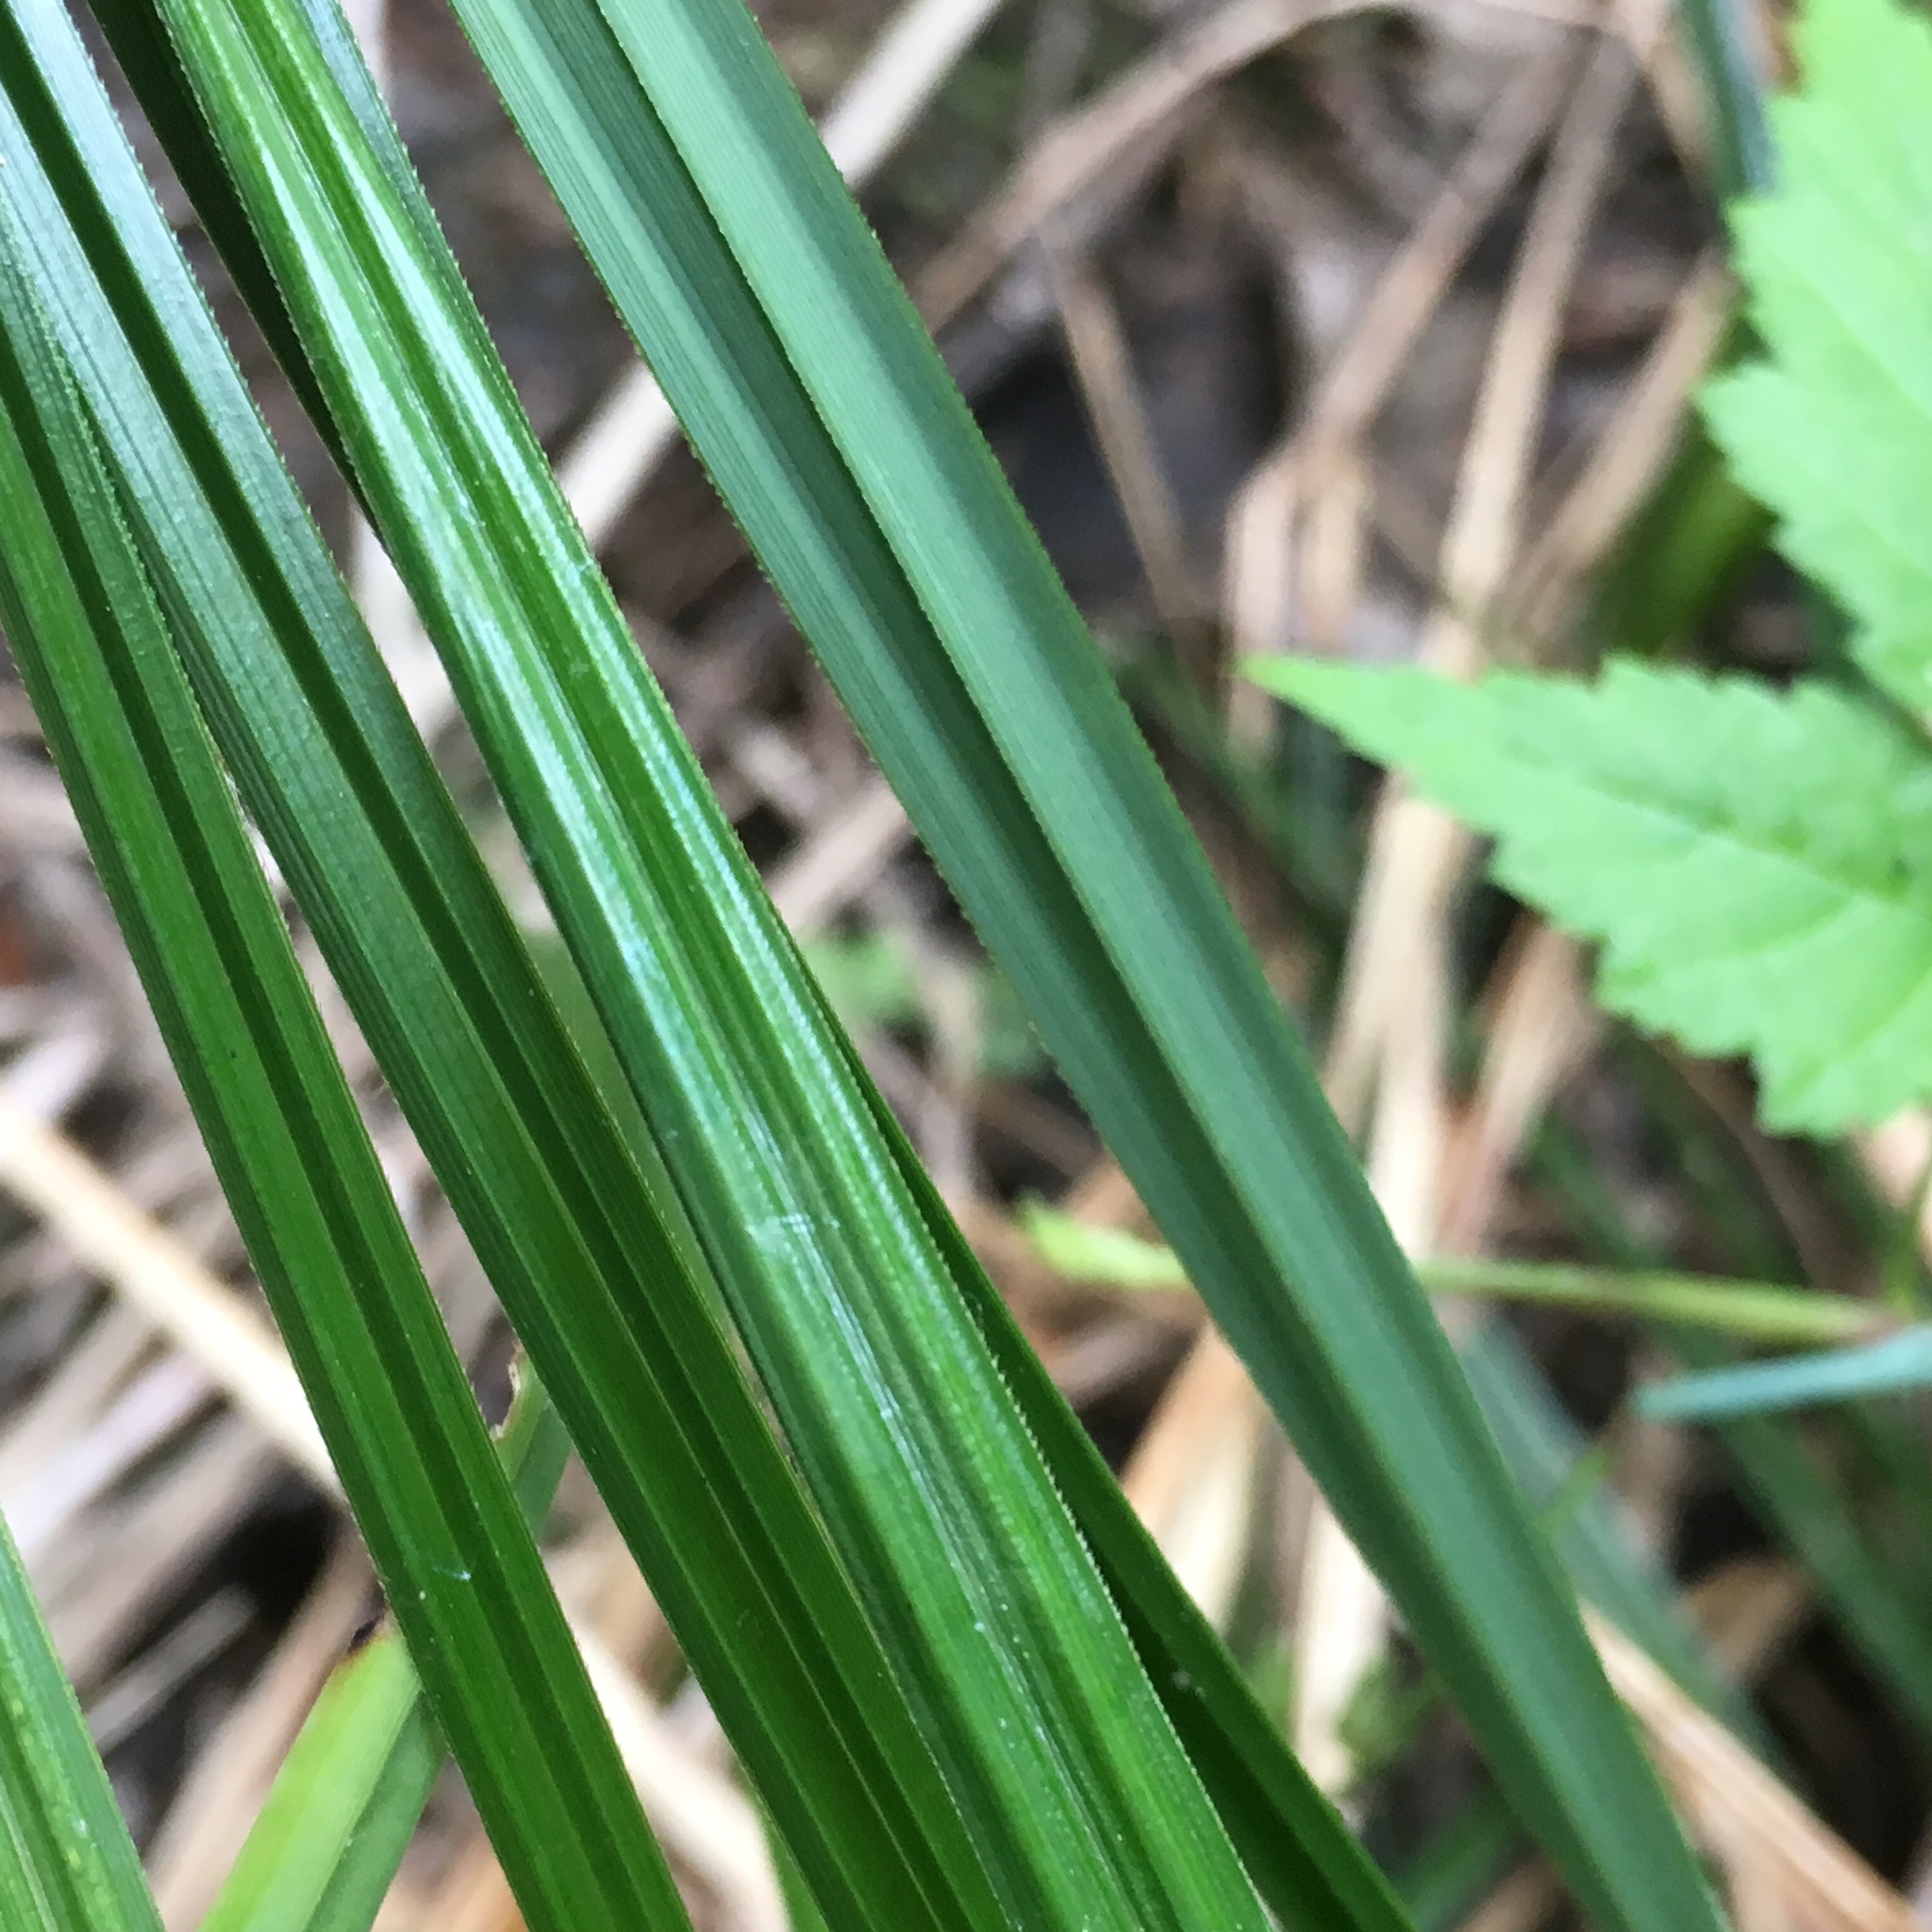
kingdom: Plantae
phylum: Tracheophyta
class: Liliopsida
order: Poales
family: Cyperaceae
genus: Carex
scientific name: Carex obnupta
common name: Slough sedge
